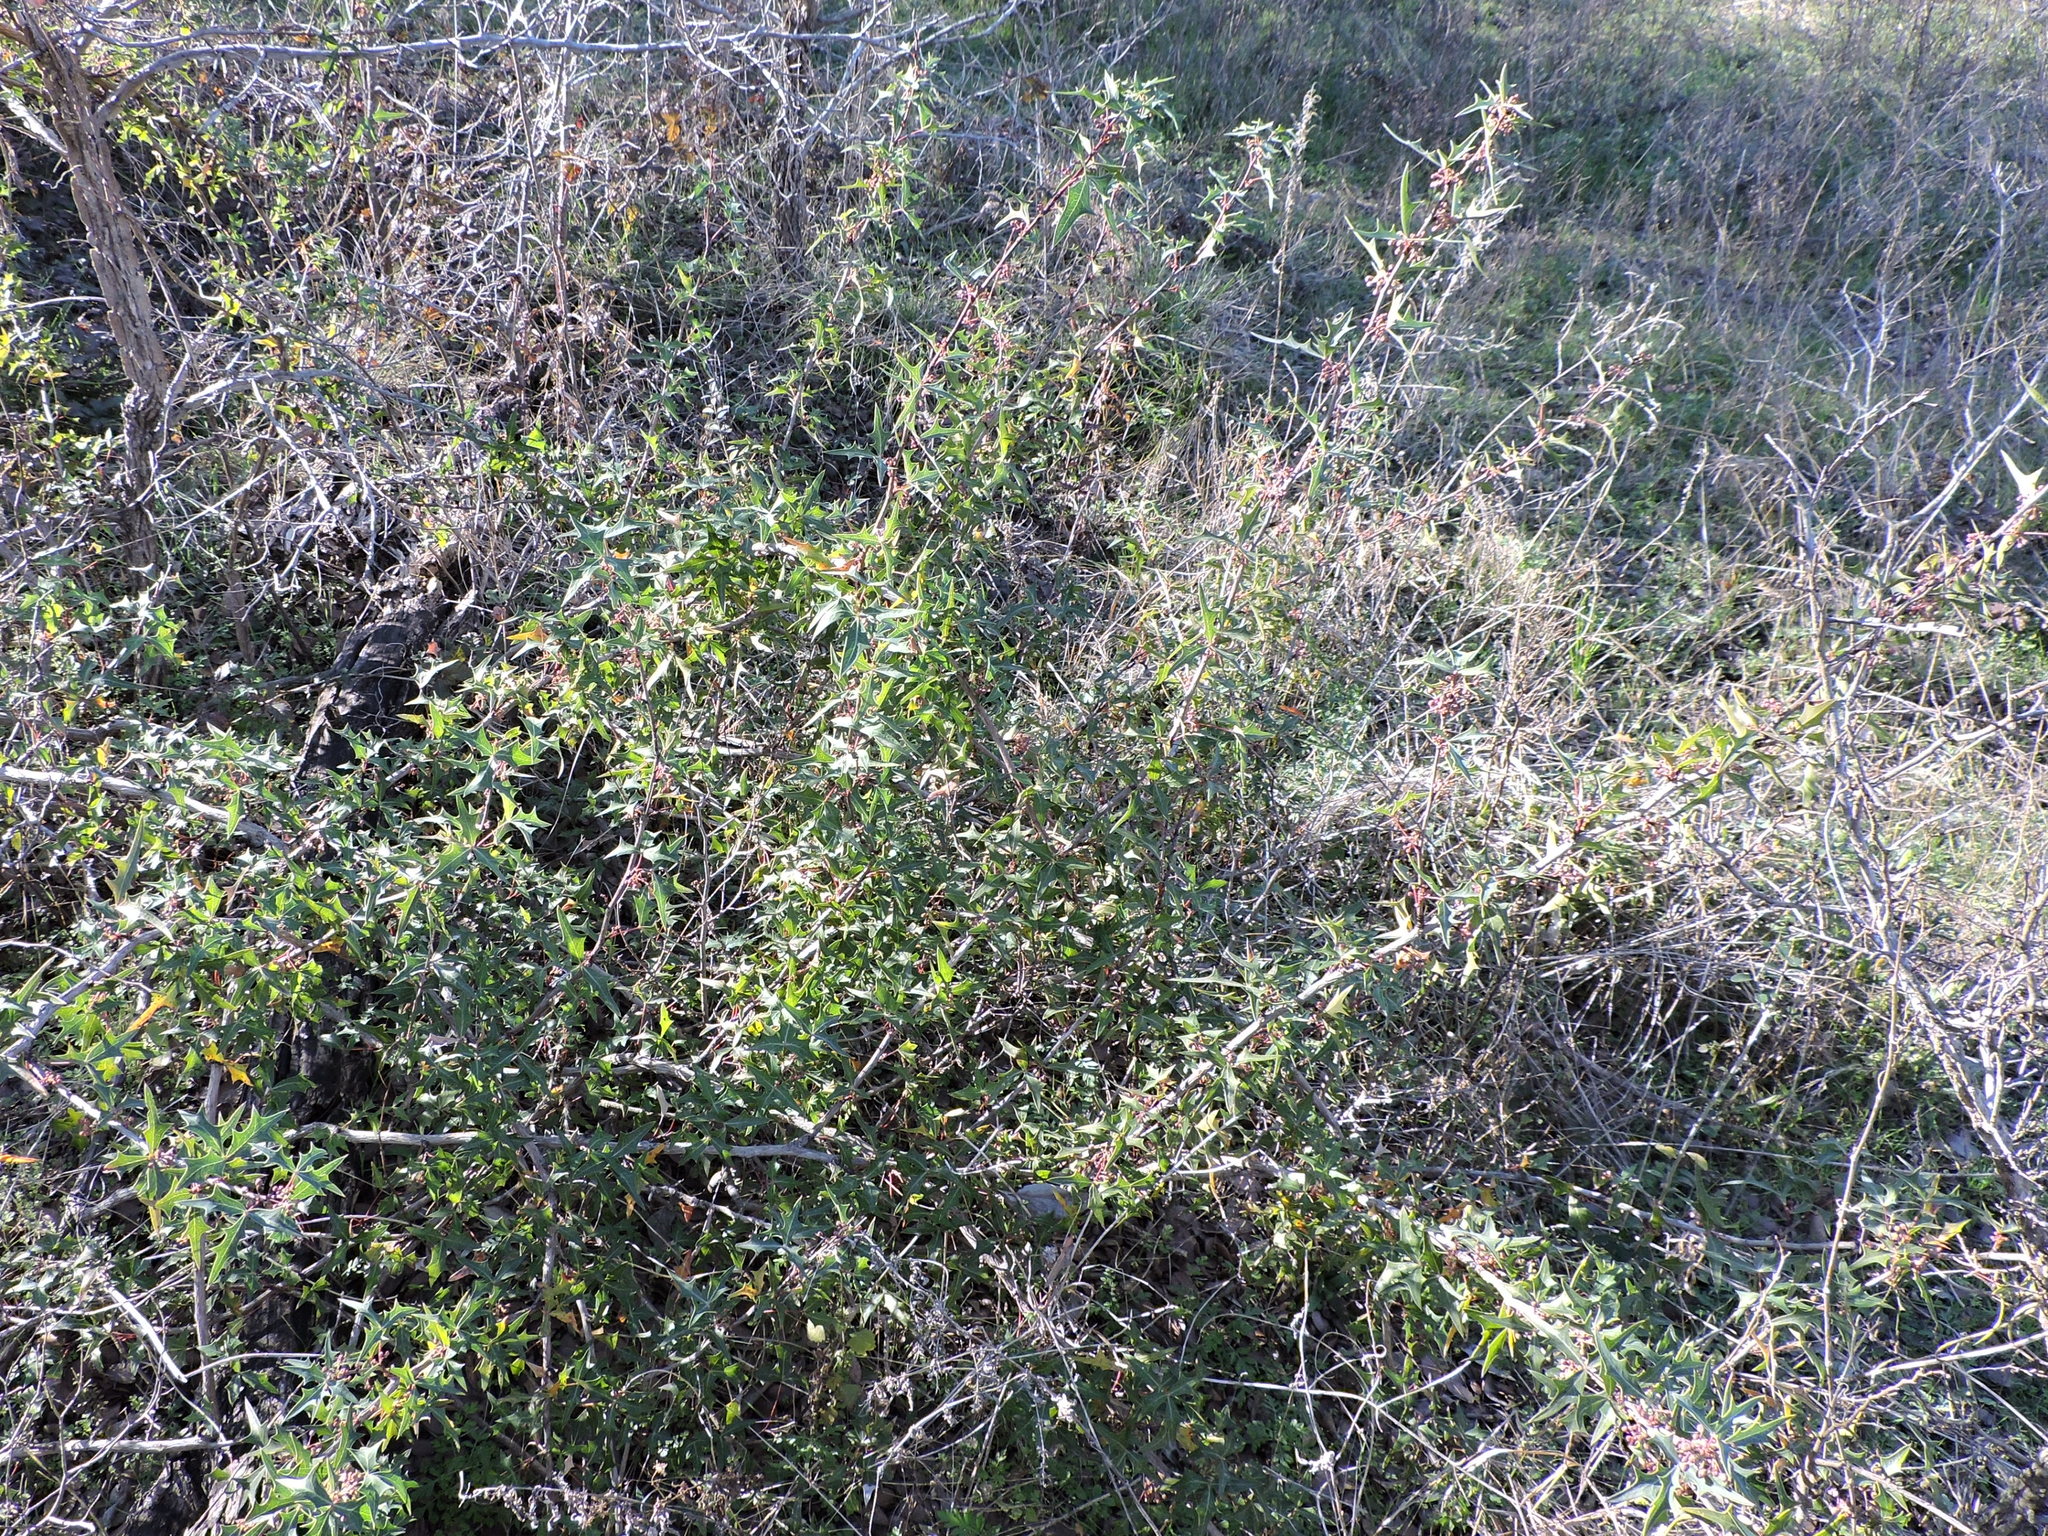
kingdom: Plantae
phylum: Tracheophyta
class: Magnoliopsida
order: Ranunculales
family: Berberidaceae
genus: Alloberberis
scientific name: Alloberberis trifoliolata
